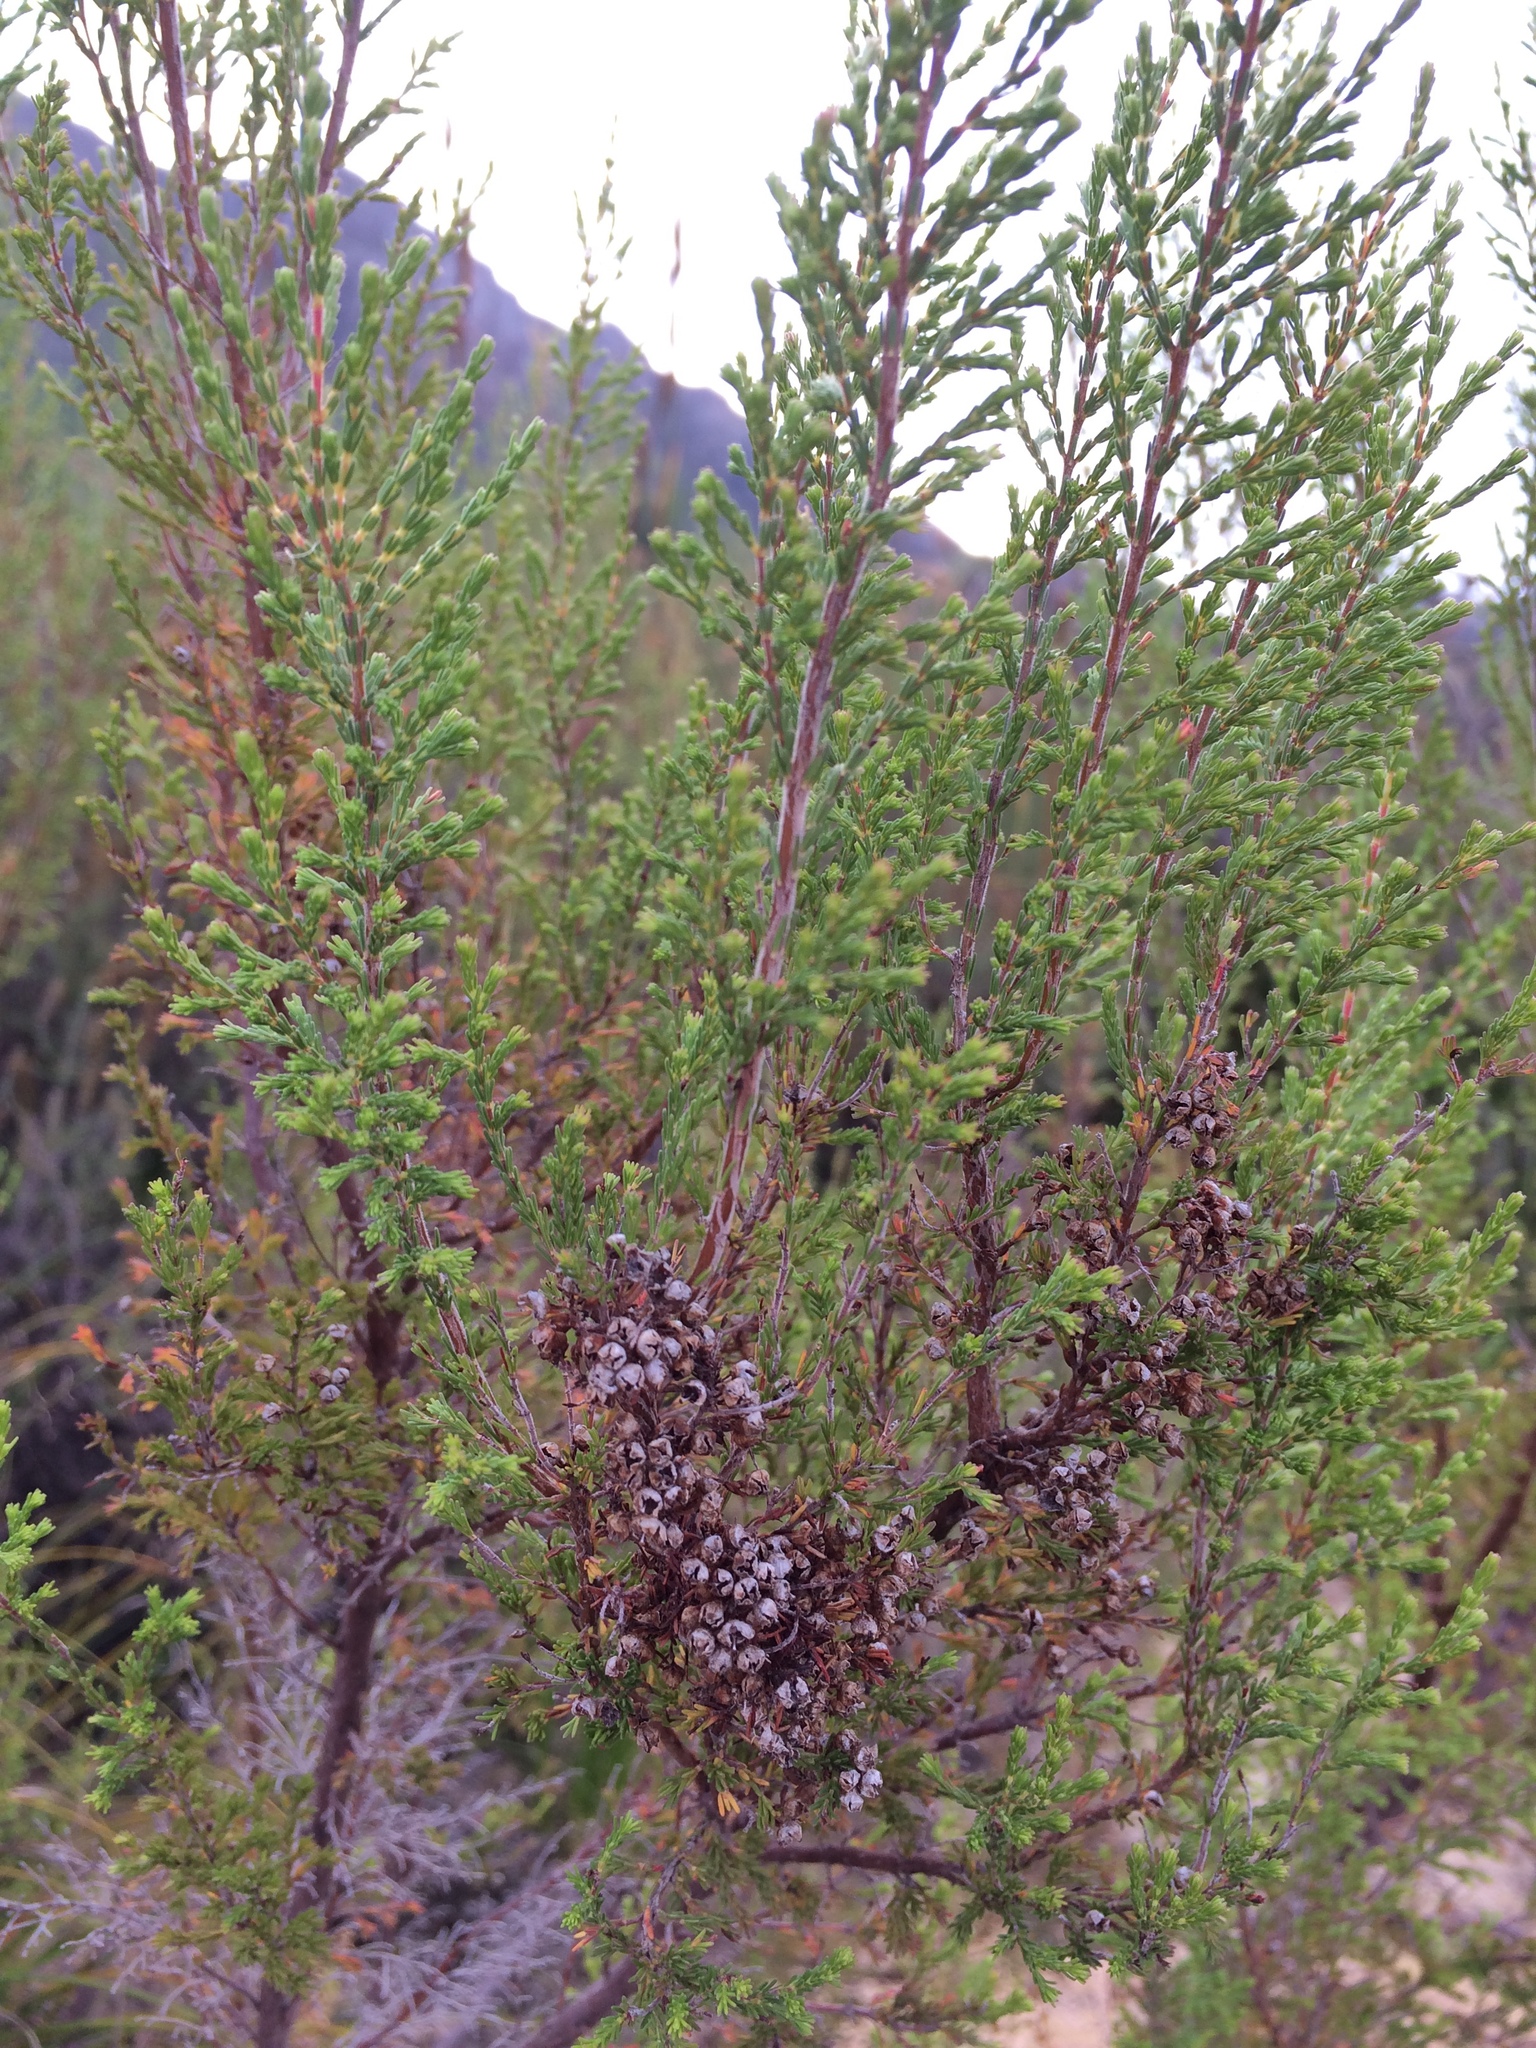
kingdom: Plantae
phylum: Tracheophyta
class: Magnoliopsida
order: Ericales
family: Ericaceae
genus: Erica
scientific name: Erica mauritanica
